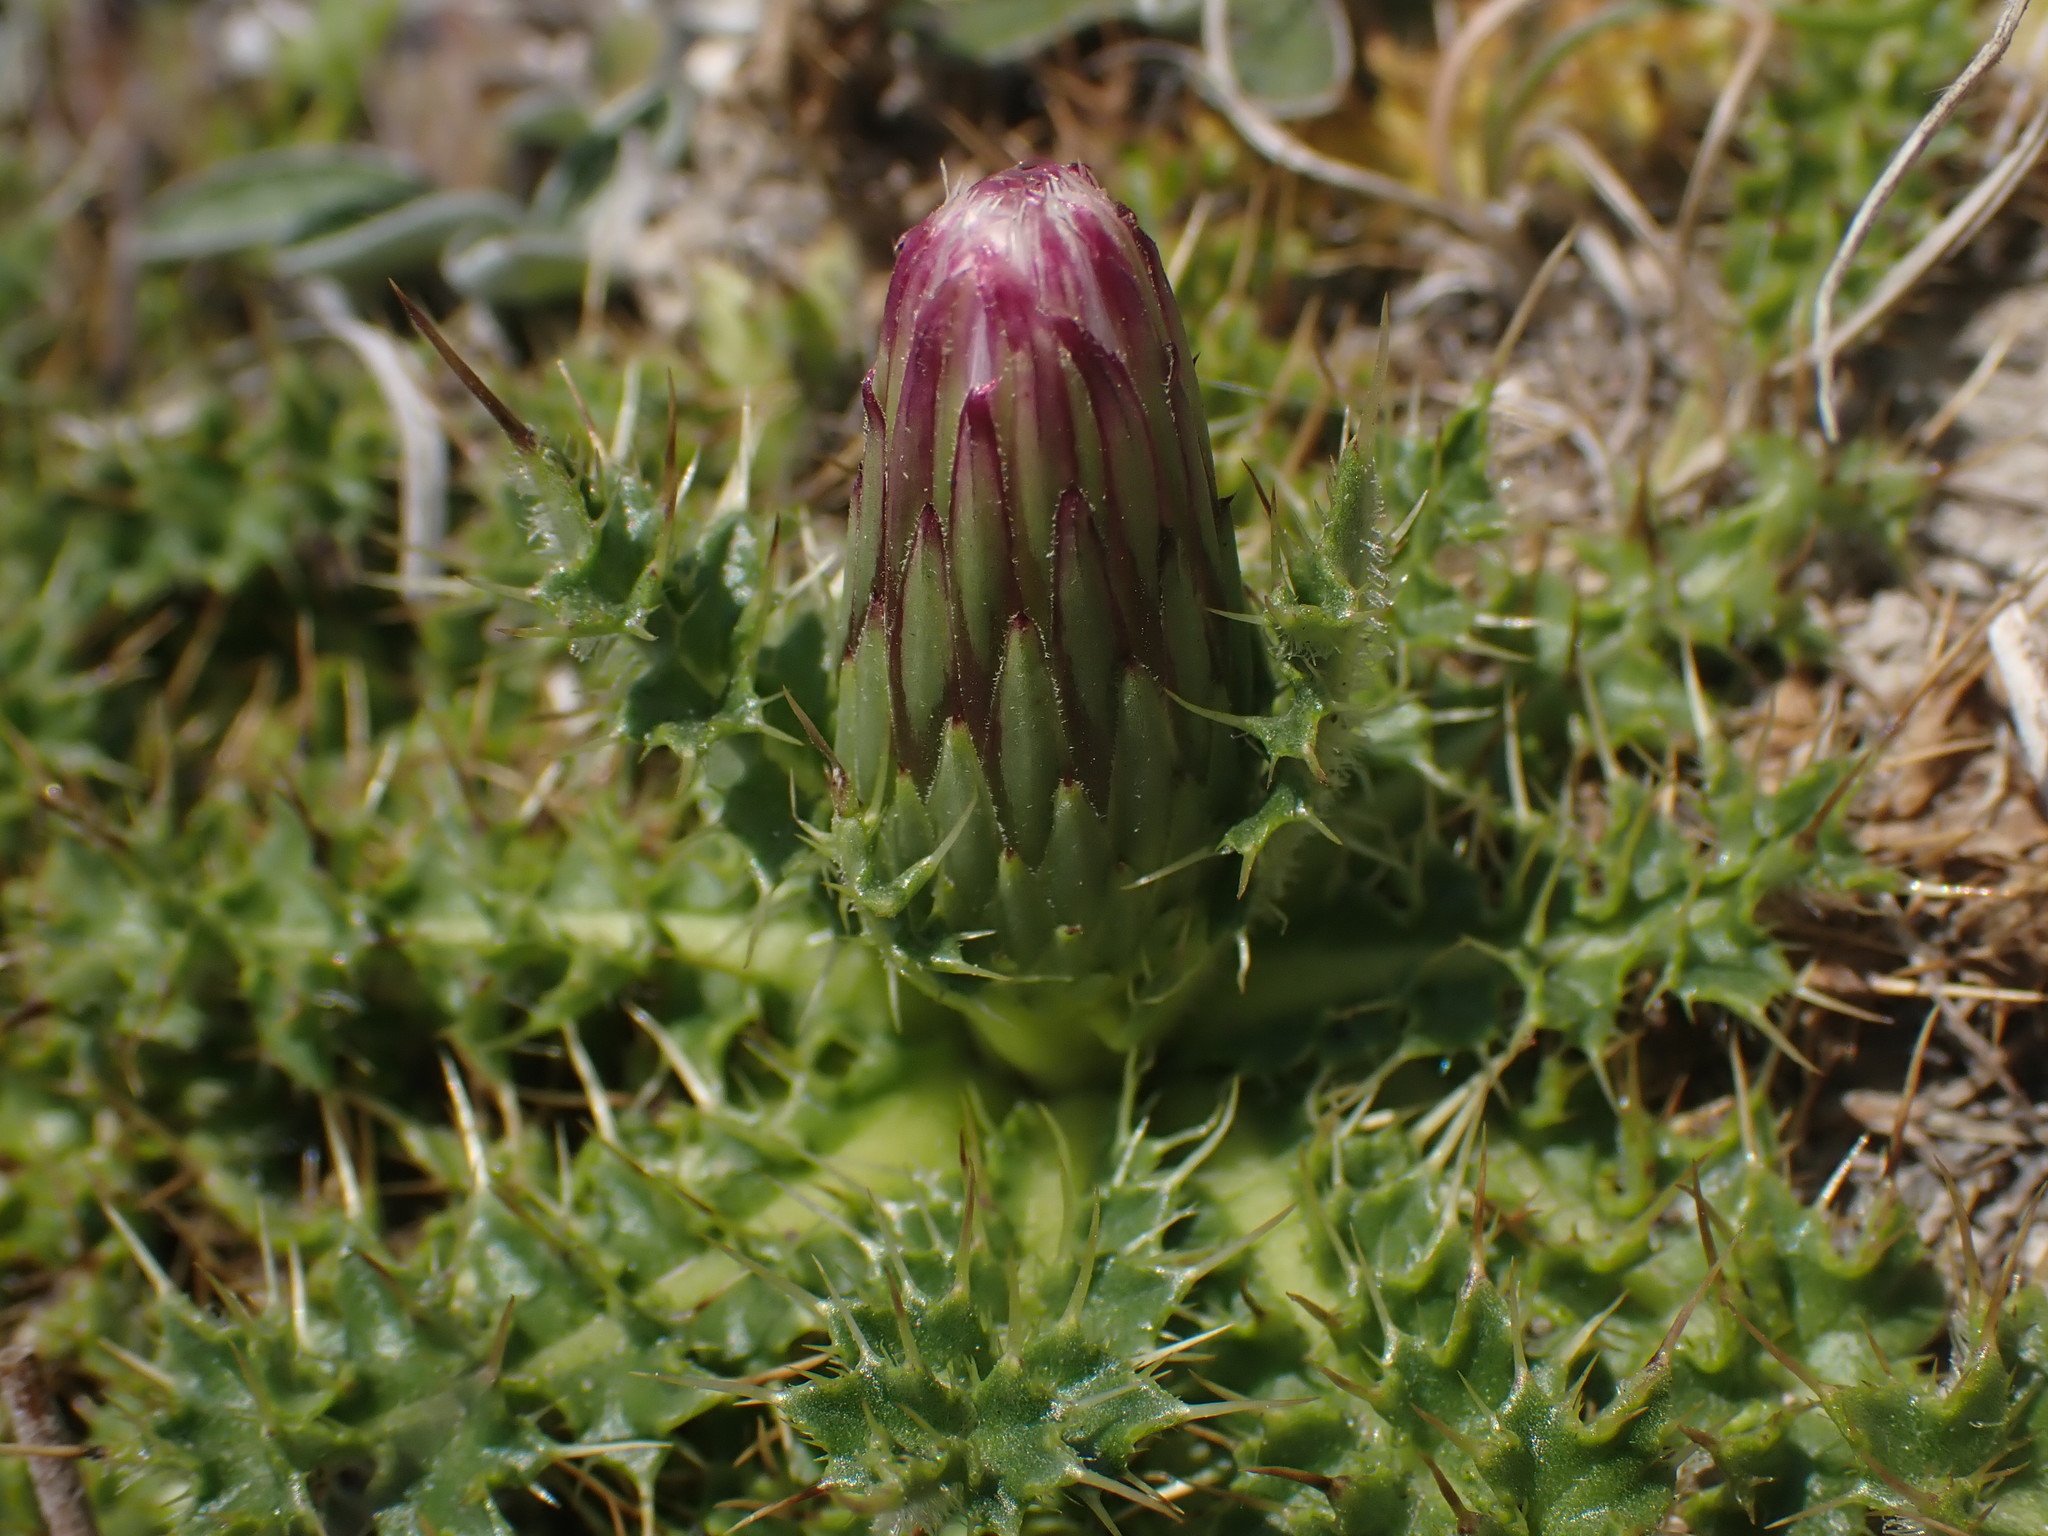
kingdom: Plantae
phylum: Tracheophyta
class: Magnoliopsida
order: Asterales
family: Asteraceae
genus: Cirsium
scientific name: Cirsium acaulon
